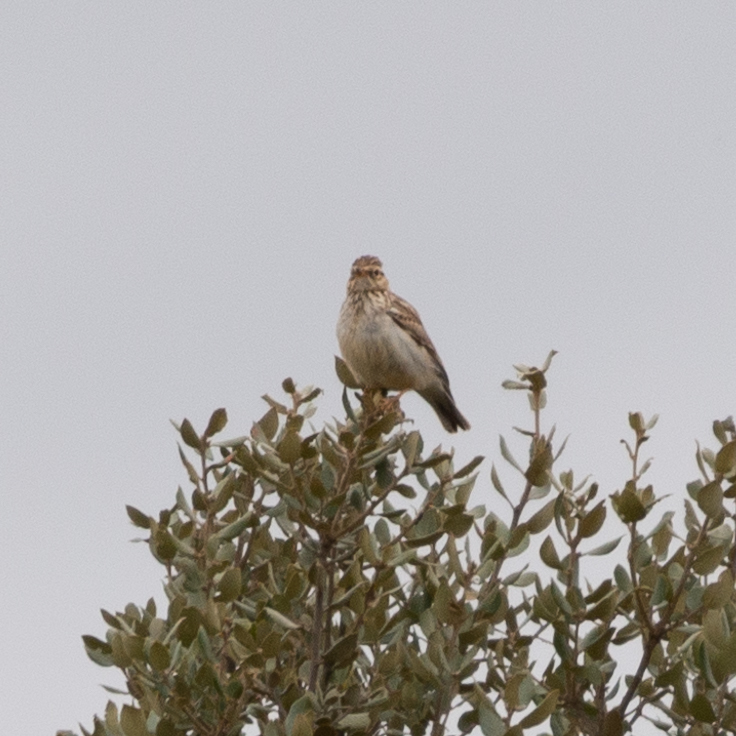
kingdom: Animalia
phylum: Chordata
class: Aves
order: Passeriformes
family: Alaudidae
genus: Lullula
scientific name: Lullula arborea
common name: Woodlark
